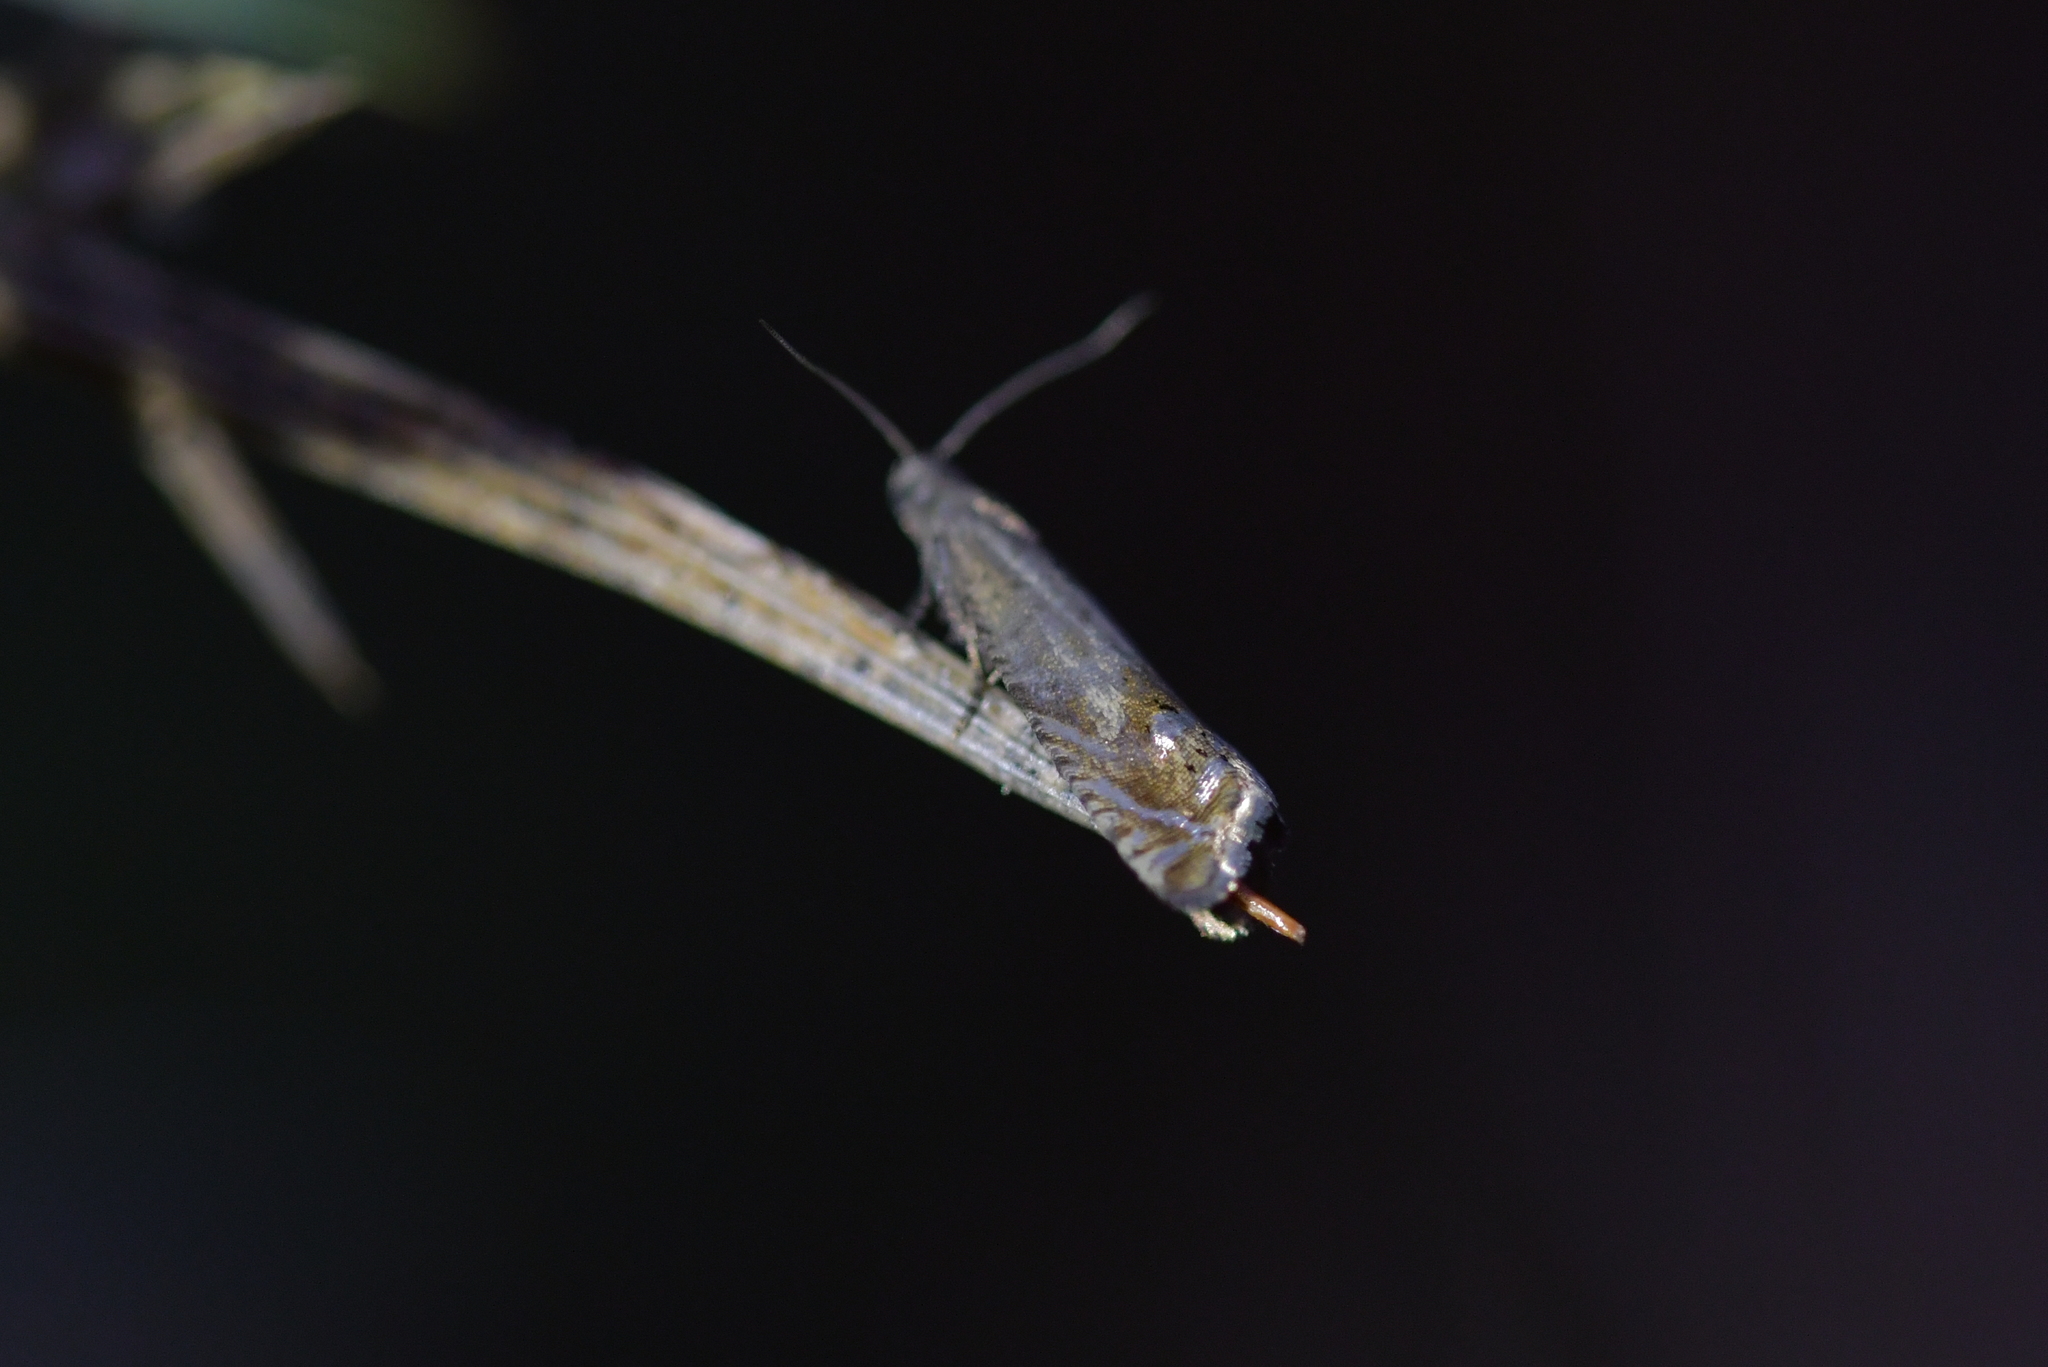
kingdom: Animalia
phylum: Arthropoda
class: Insecta
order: Lepidoptera
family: Tortricidae
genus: Cydia
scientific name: Cydia succedana
